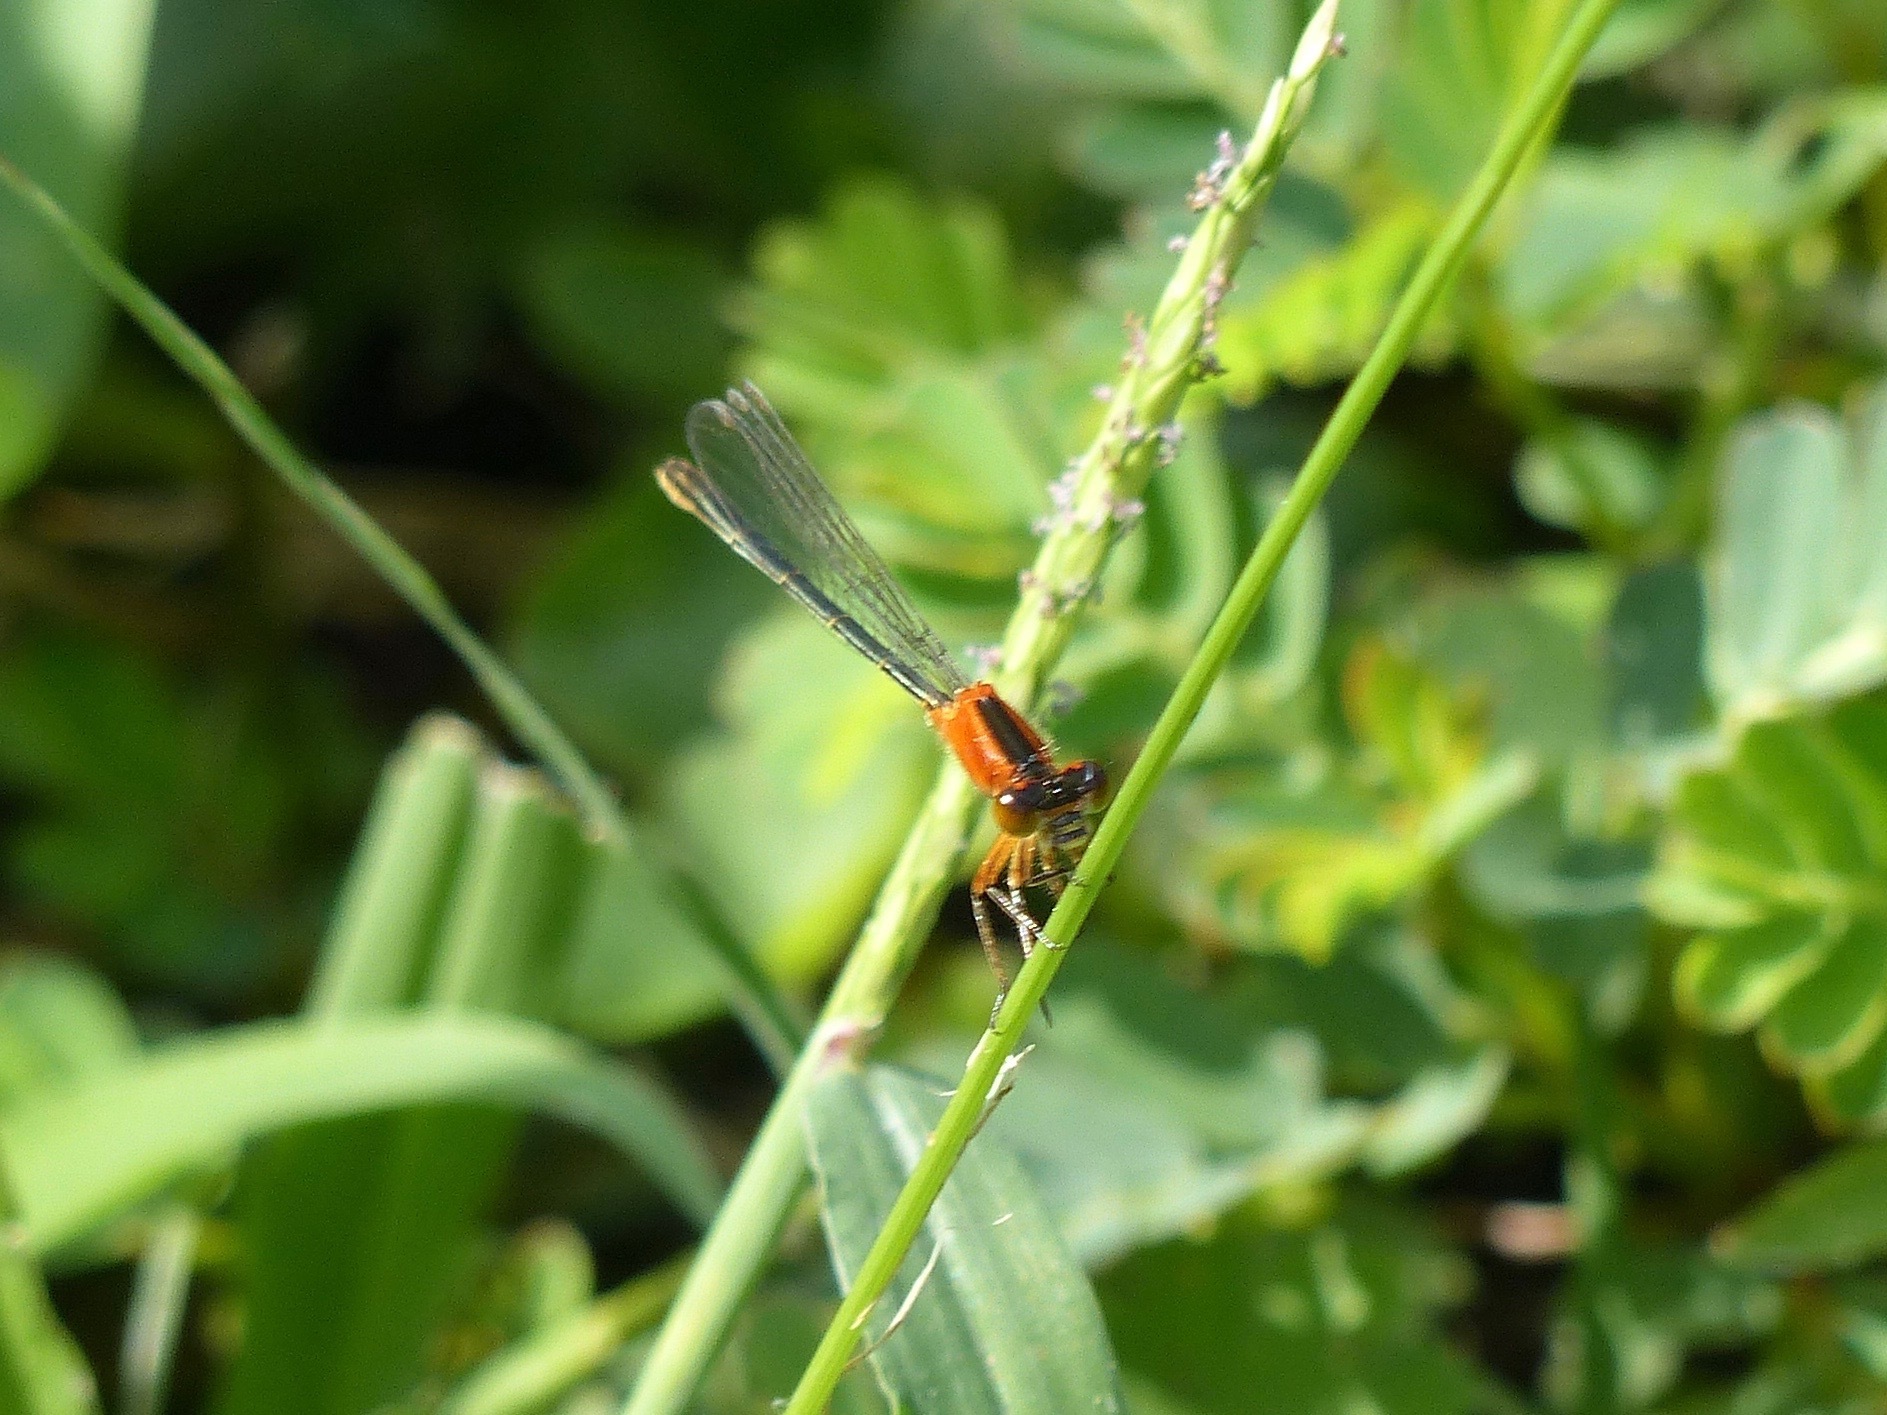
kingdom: Animalia
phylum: Arthropoda
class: Insecta
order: Odonata
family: Coenagrionidae
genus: Ischnura
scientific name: Ischnura ramburii
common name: Rambur's forktail
